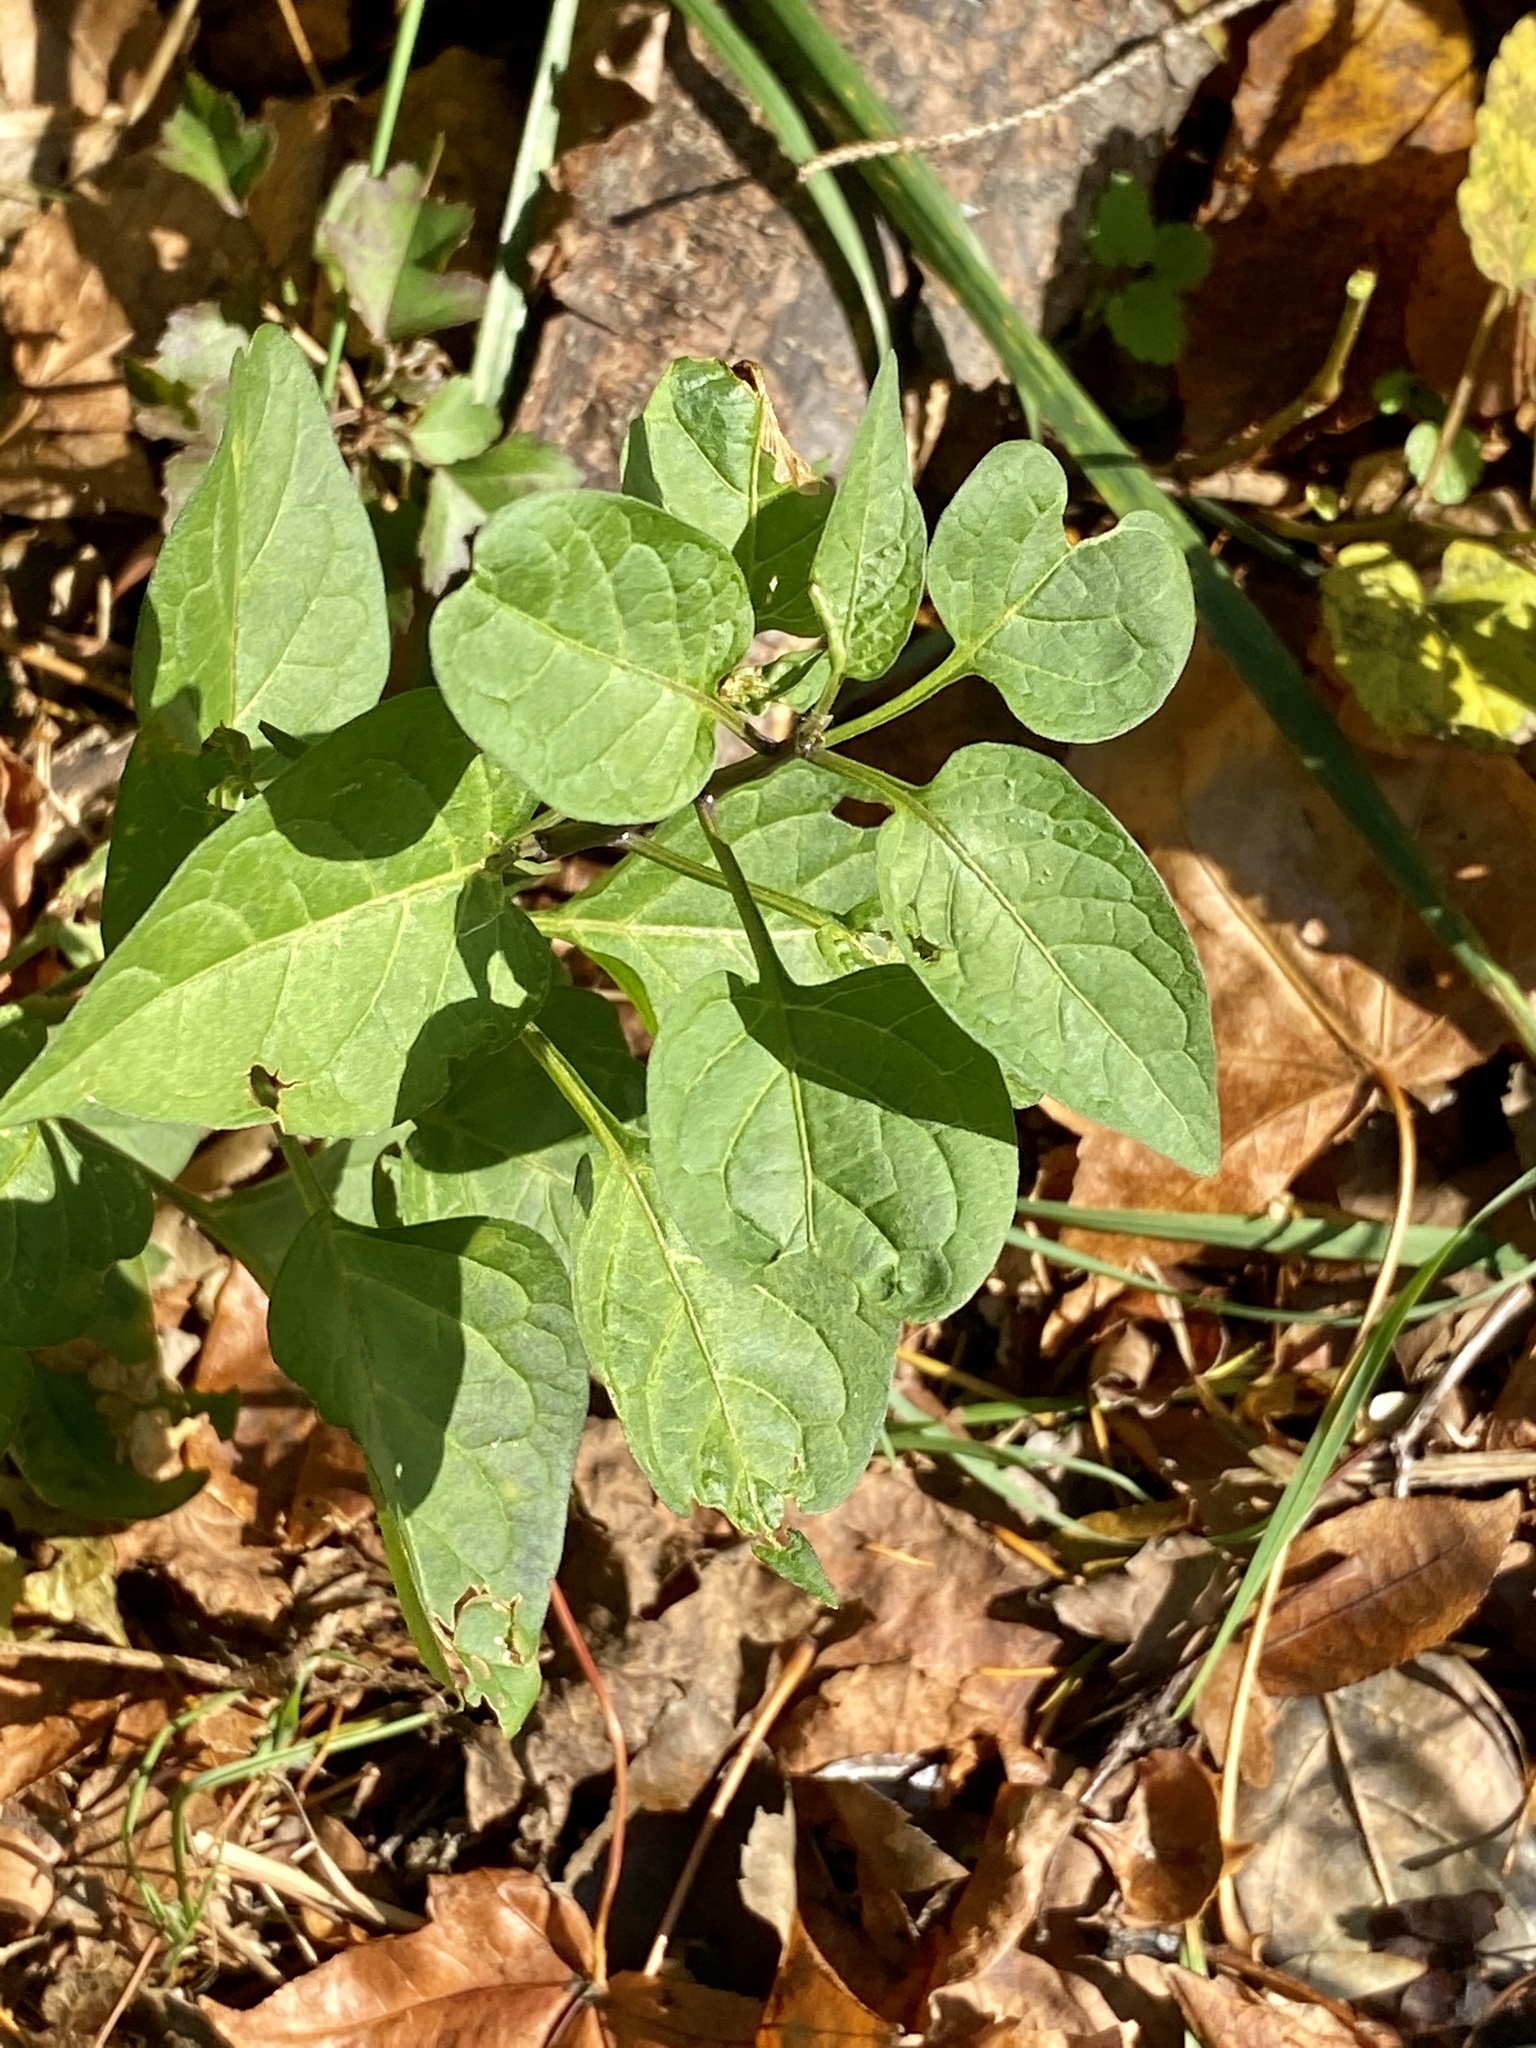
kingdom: Plantae
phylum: Tracheophyta
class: Magnoliopsida
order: Solanales
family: Solanaceae
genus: Solanum
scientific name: Solanum dulcamara
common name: Climbing nightshade
